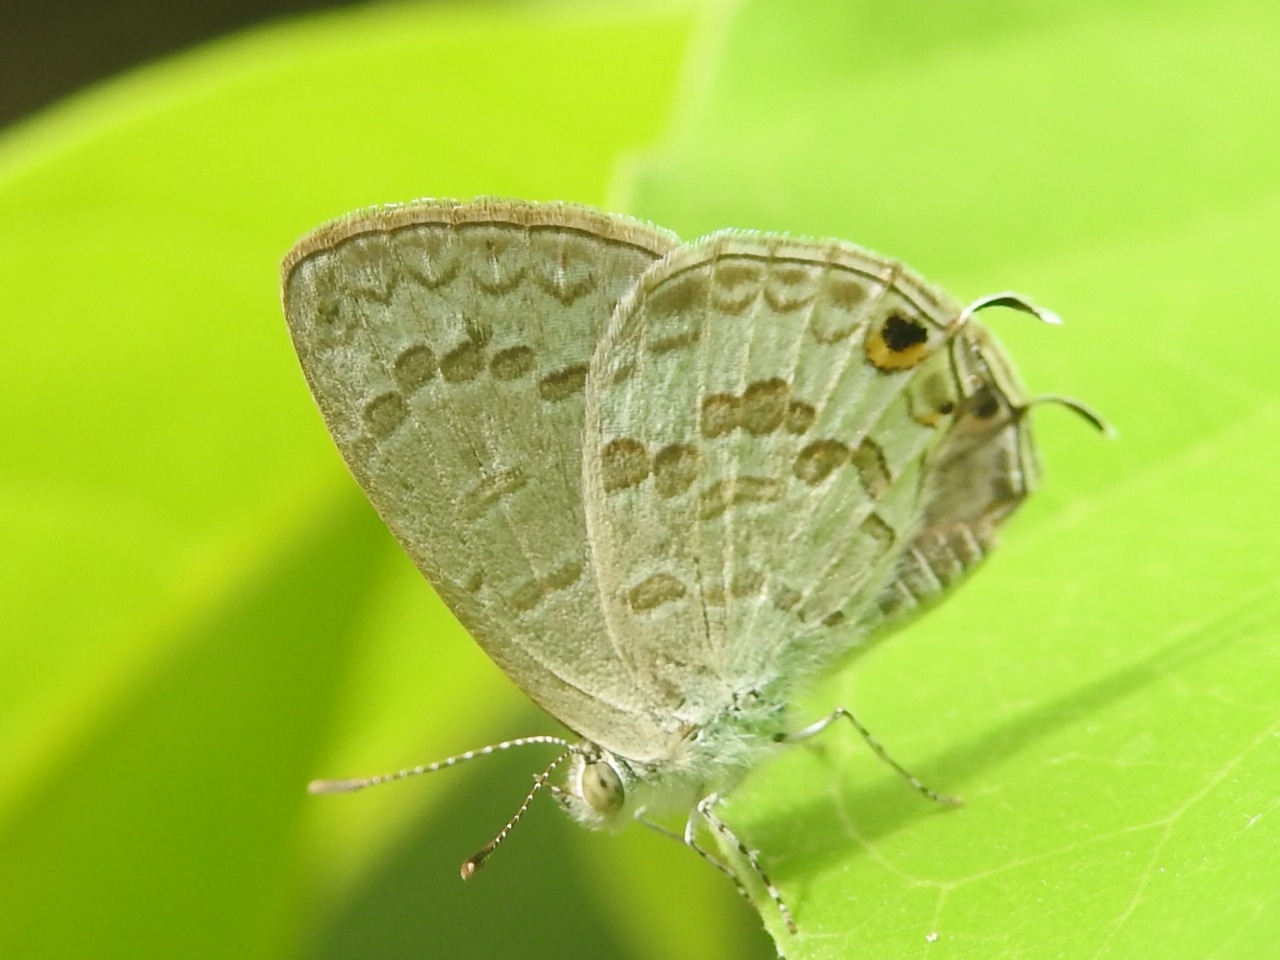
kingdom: Animalia
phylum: Arthropoda
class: Insecta
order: Lepidoptera
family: Lycaenidae
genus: Catopyrops
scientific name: Catopyrops florinda
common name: Speckled line-blue
